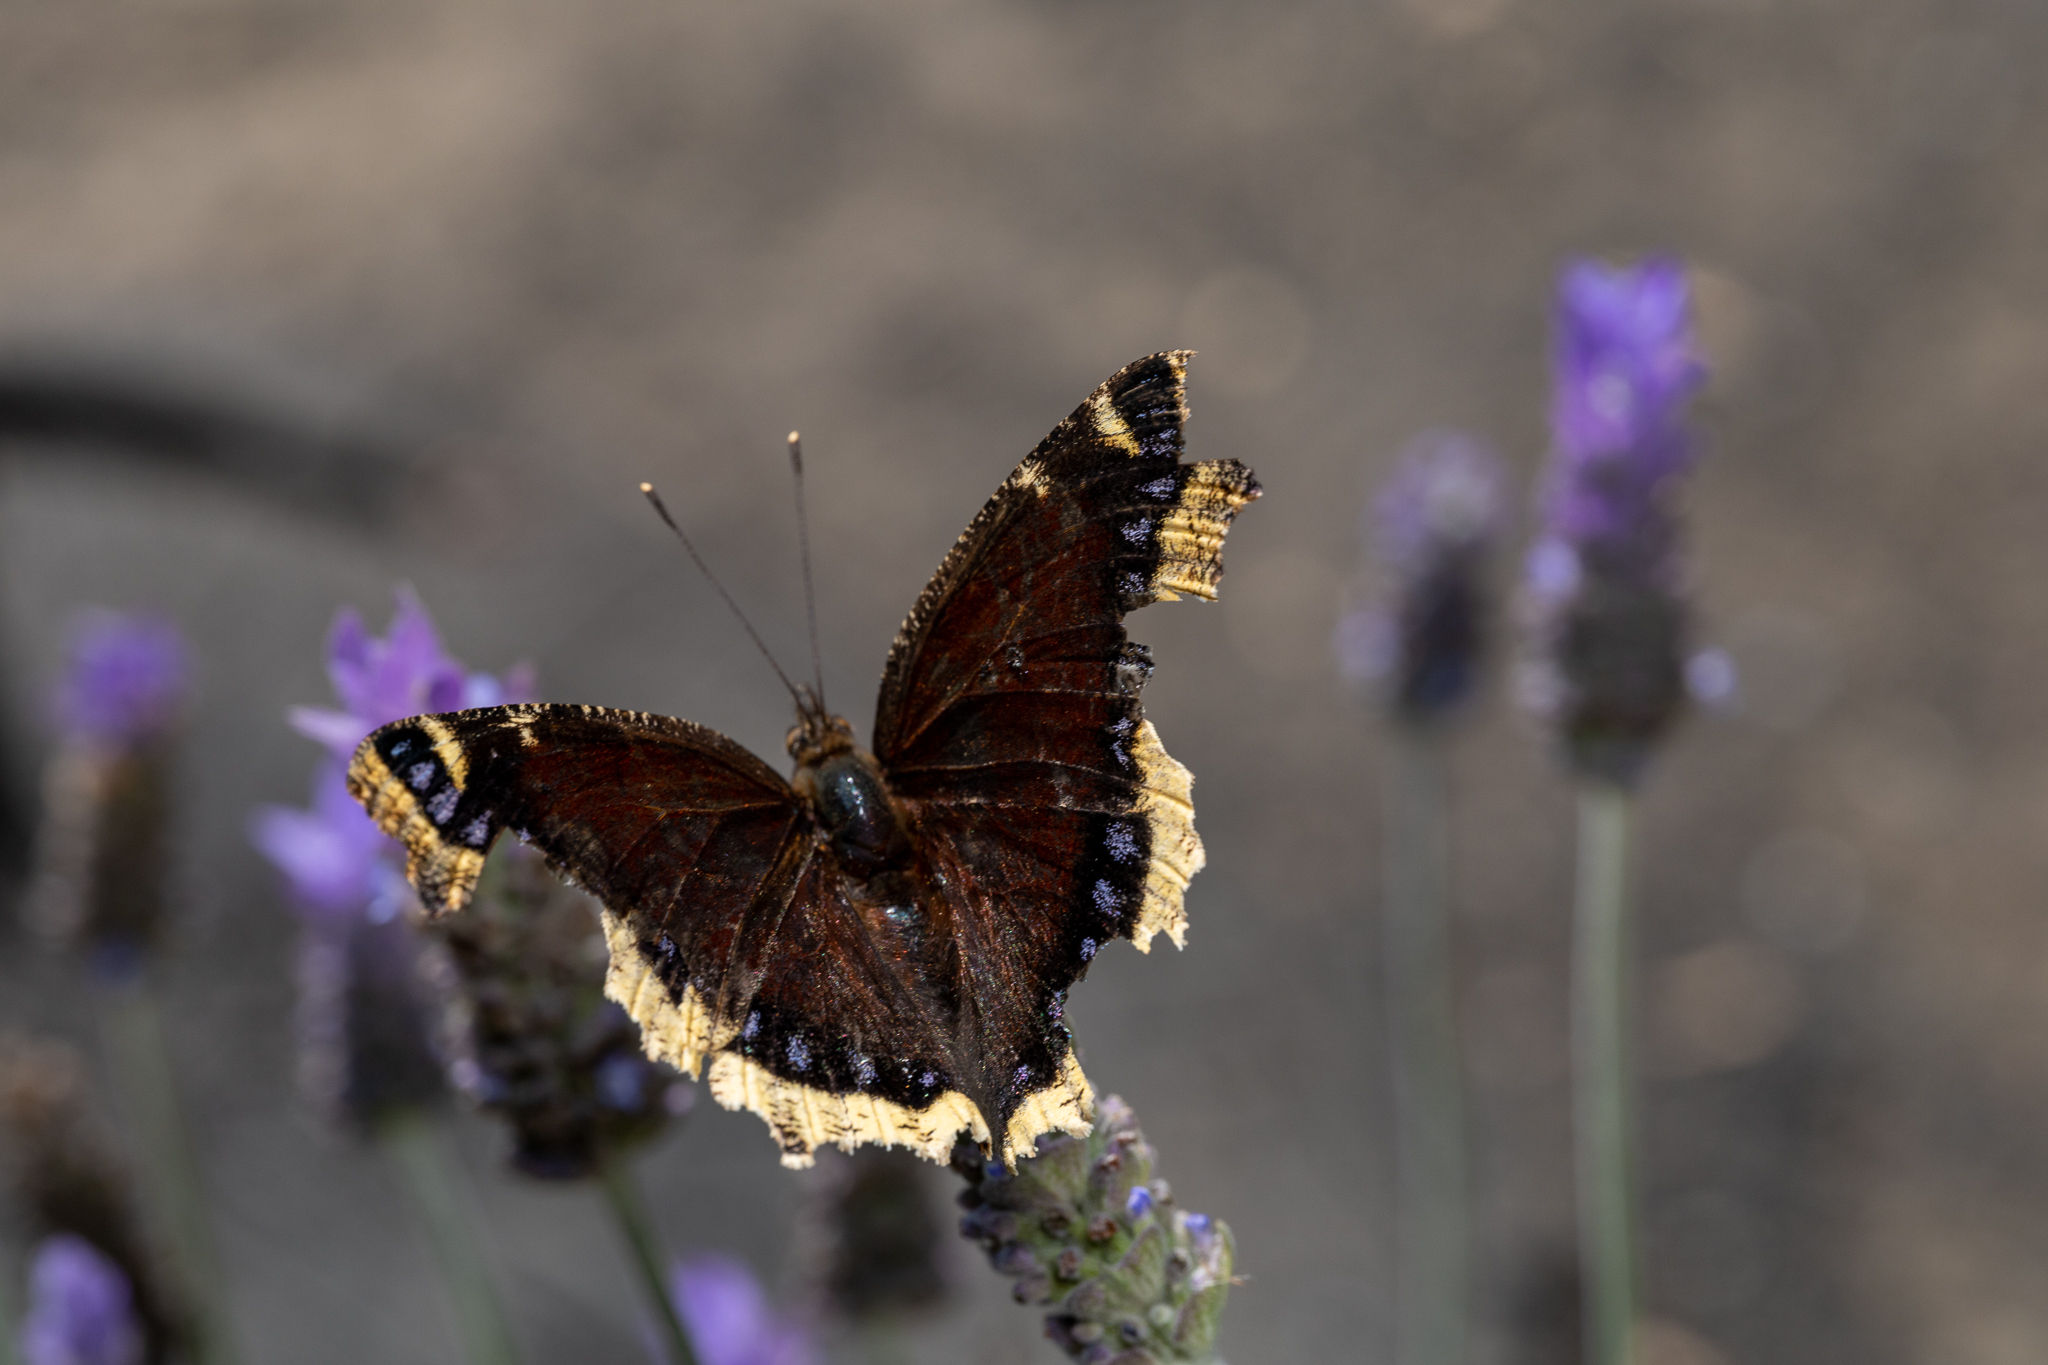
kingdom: Animalia
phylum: Arthropoda
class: Insecta
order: Lepidoptera
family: Nymphalidae
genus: Nymphalis
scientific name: Nymphalis antiopa
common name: Camberwell beauty
